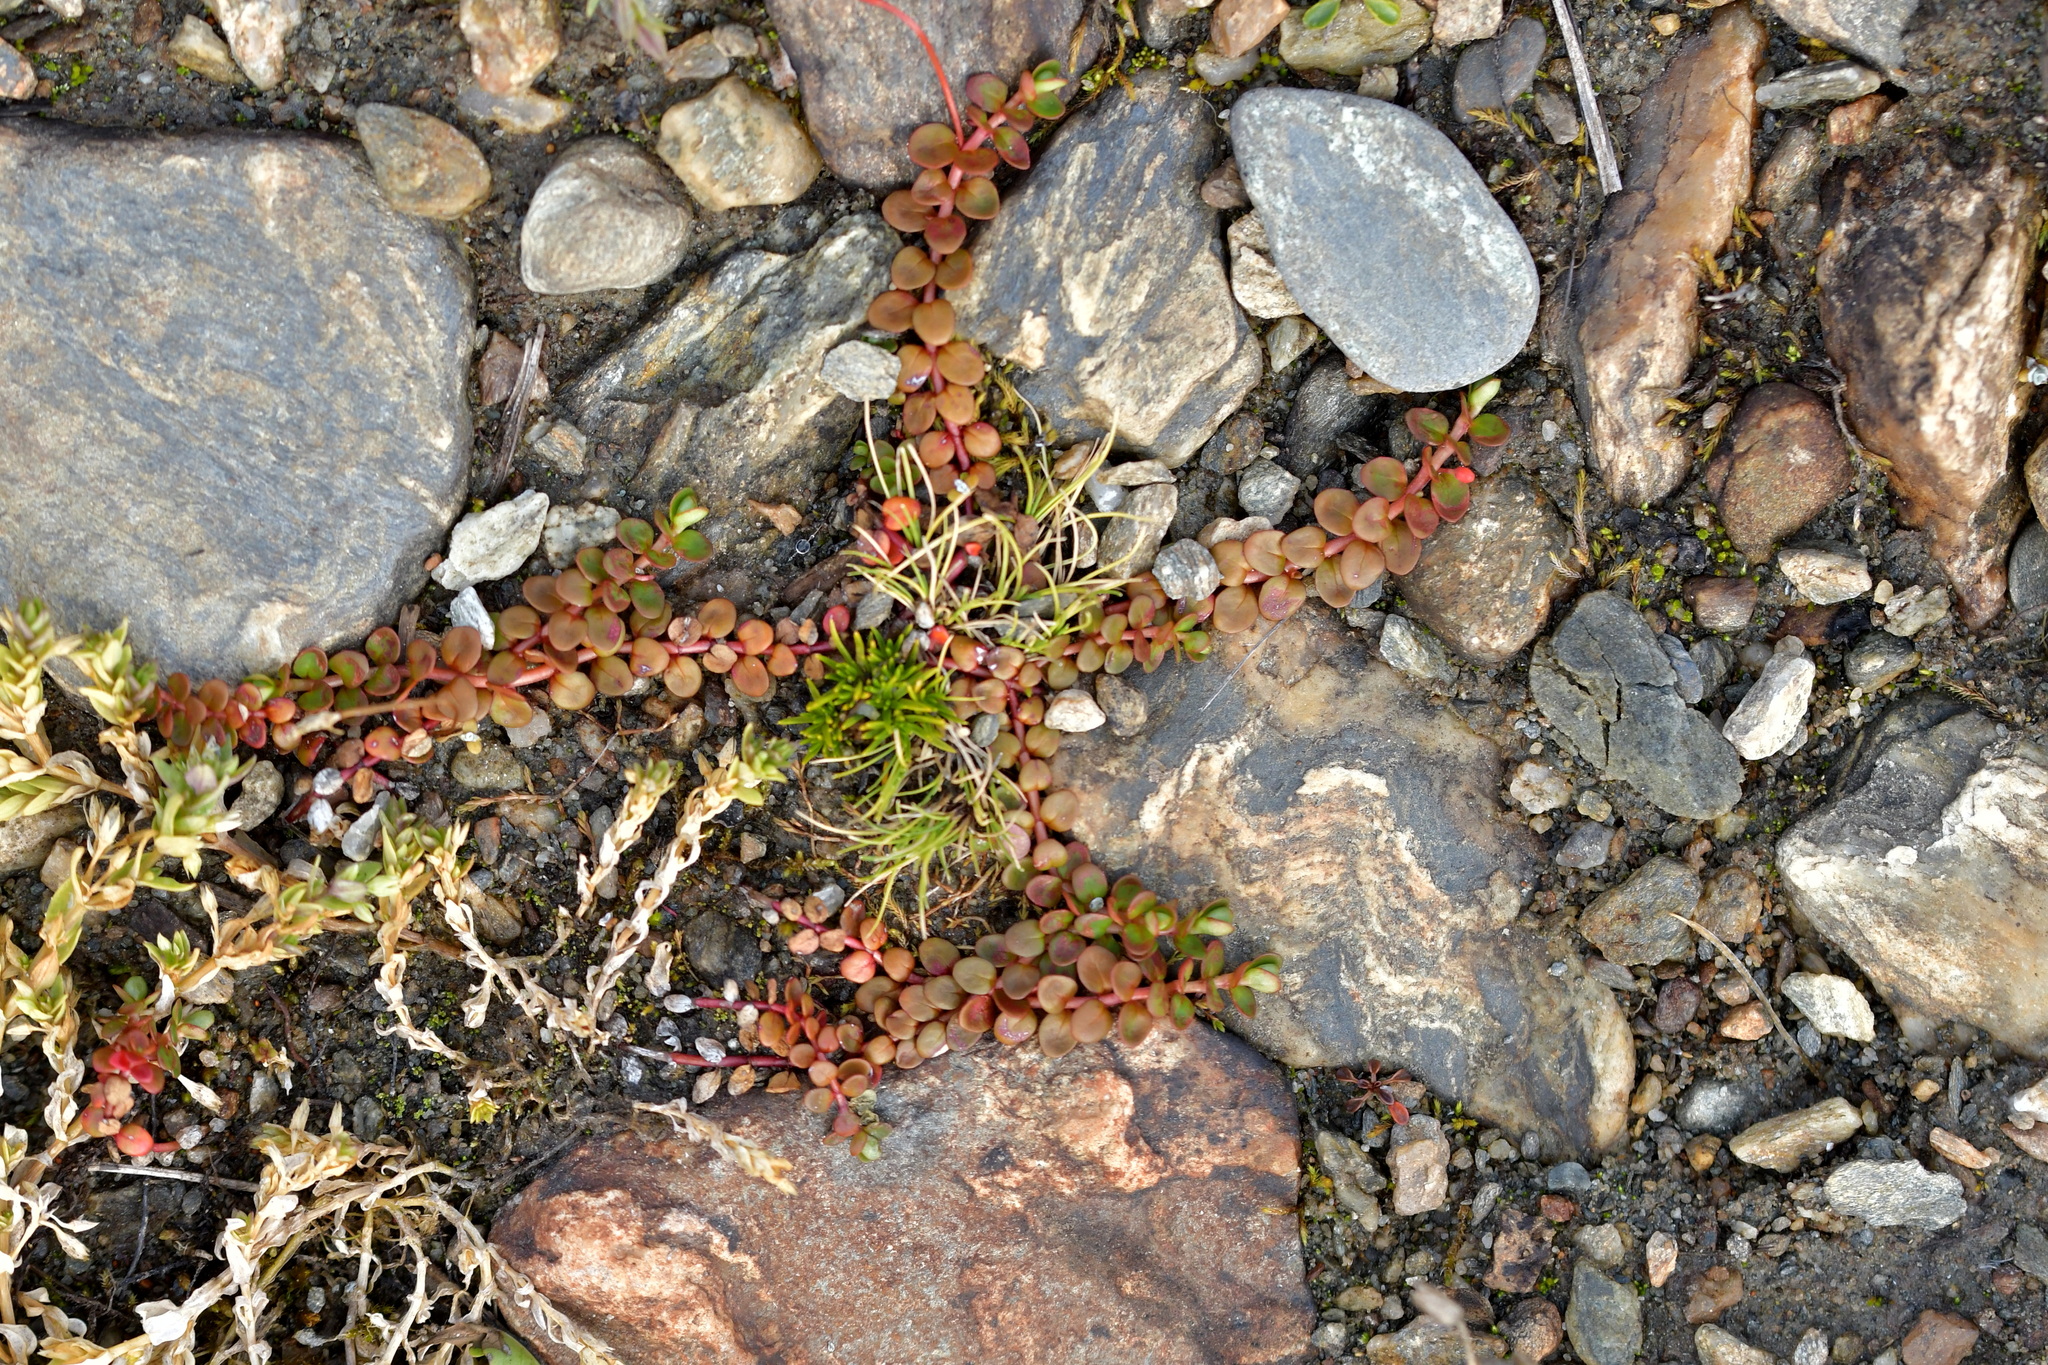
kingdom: Plantae
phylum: Tracheophyta
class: Magnoliopsida
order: Myrtales
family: Onagraceae
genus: Epilobium
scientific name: Epilobium brunnescens
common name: New zealand willowherb
